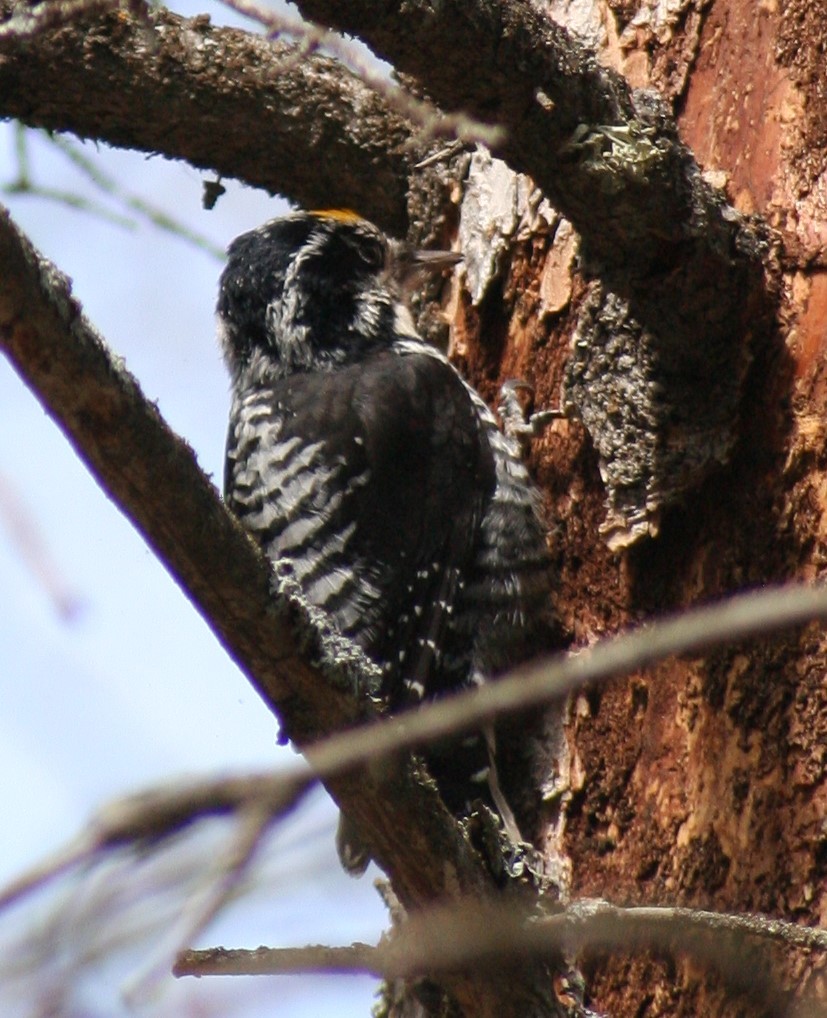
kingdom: Animalia
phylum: Chordata
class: Aves
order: Piciformes
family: Picidae
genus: Picoides
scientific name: Picoides dorsalis
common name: American three-toed woodpecker
